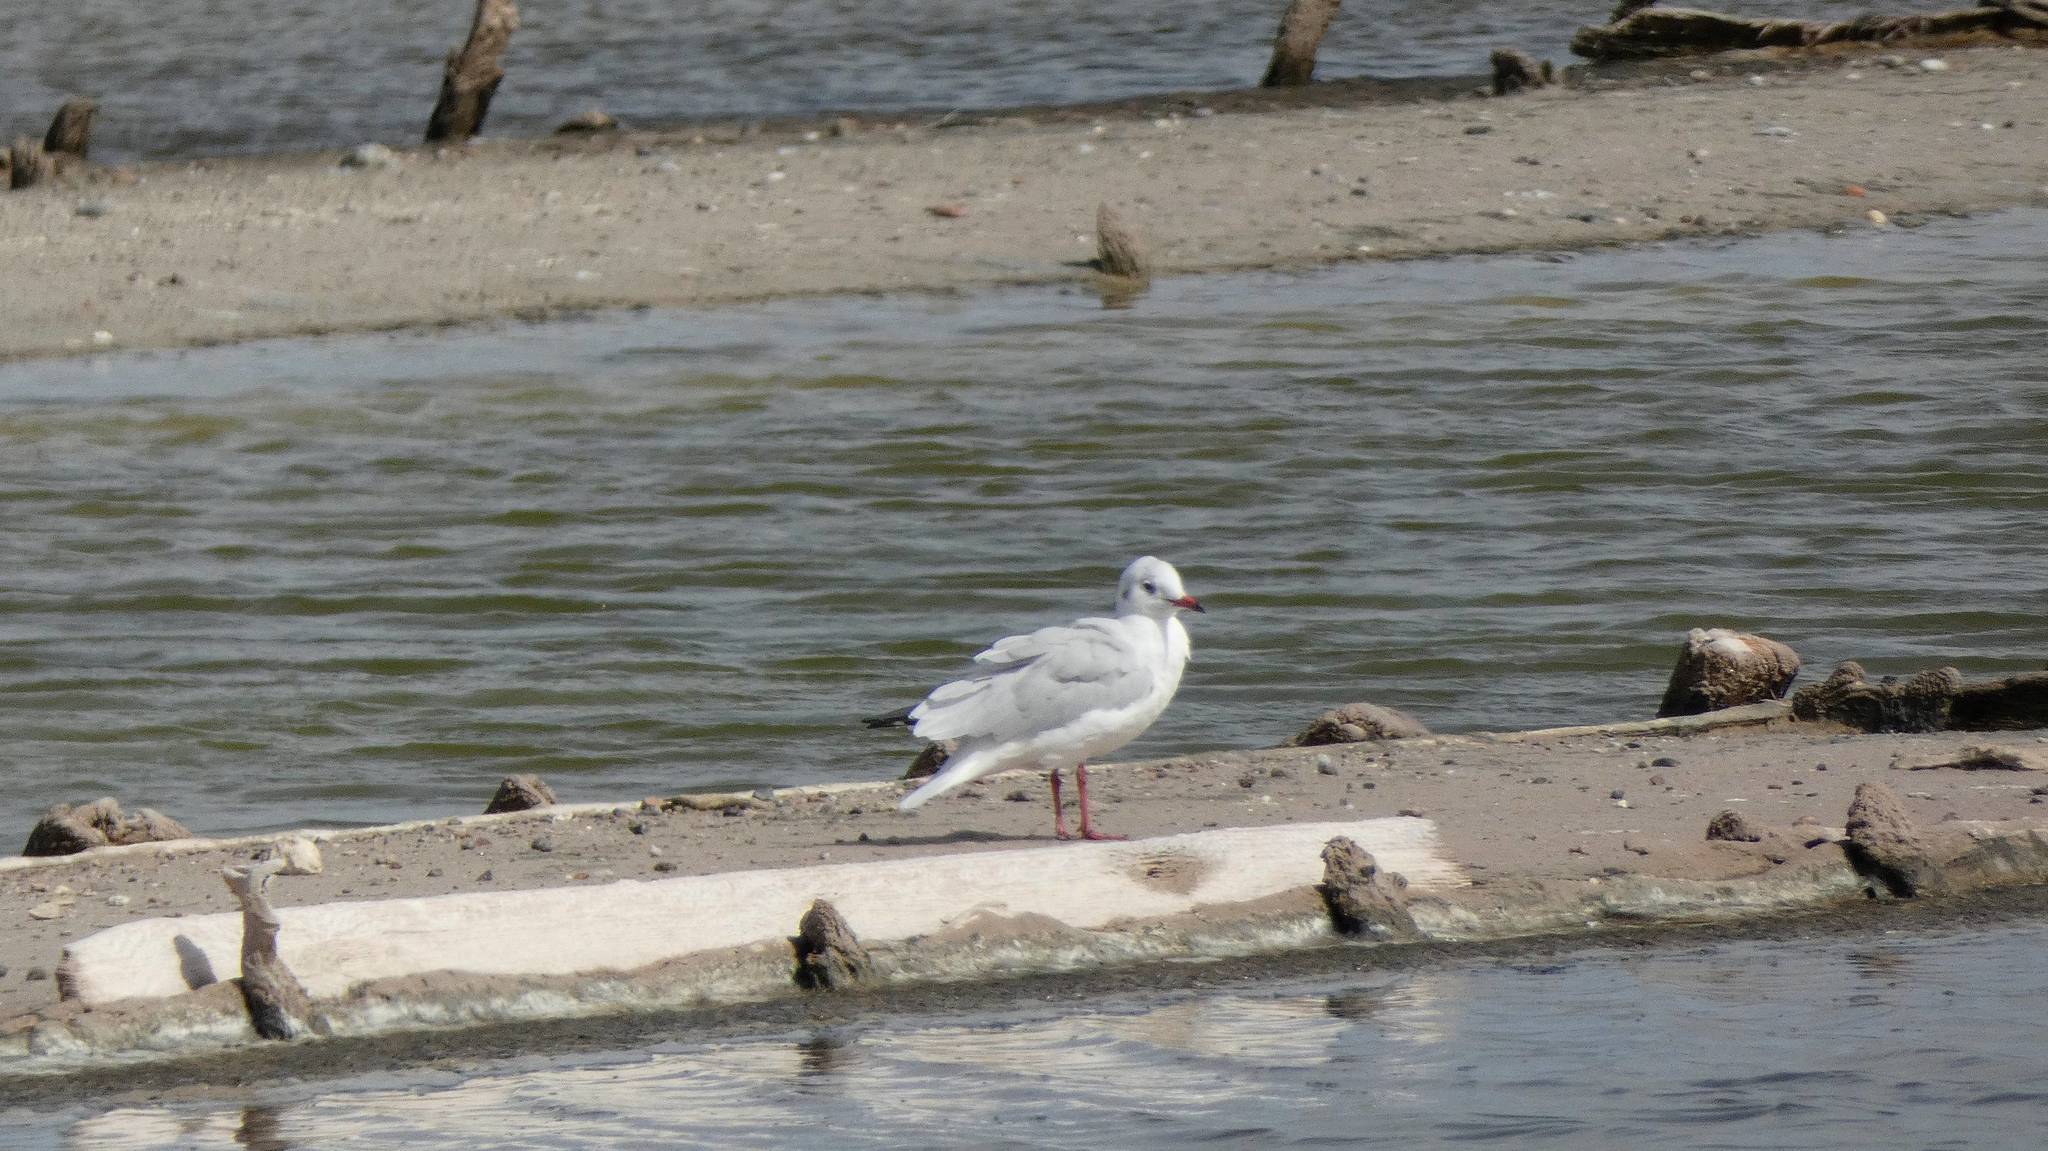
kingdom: Animalia
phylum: Chordata
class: Aves
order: Charadriiformes
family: Laridae
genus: Chroicocephalus
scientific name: Chroicocephalus ridibundus
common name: Black-headed gull
